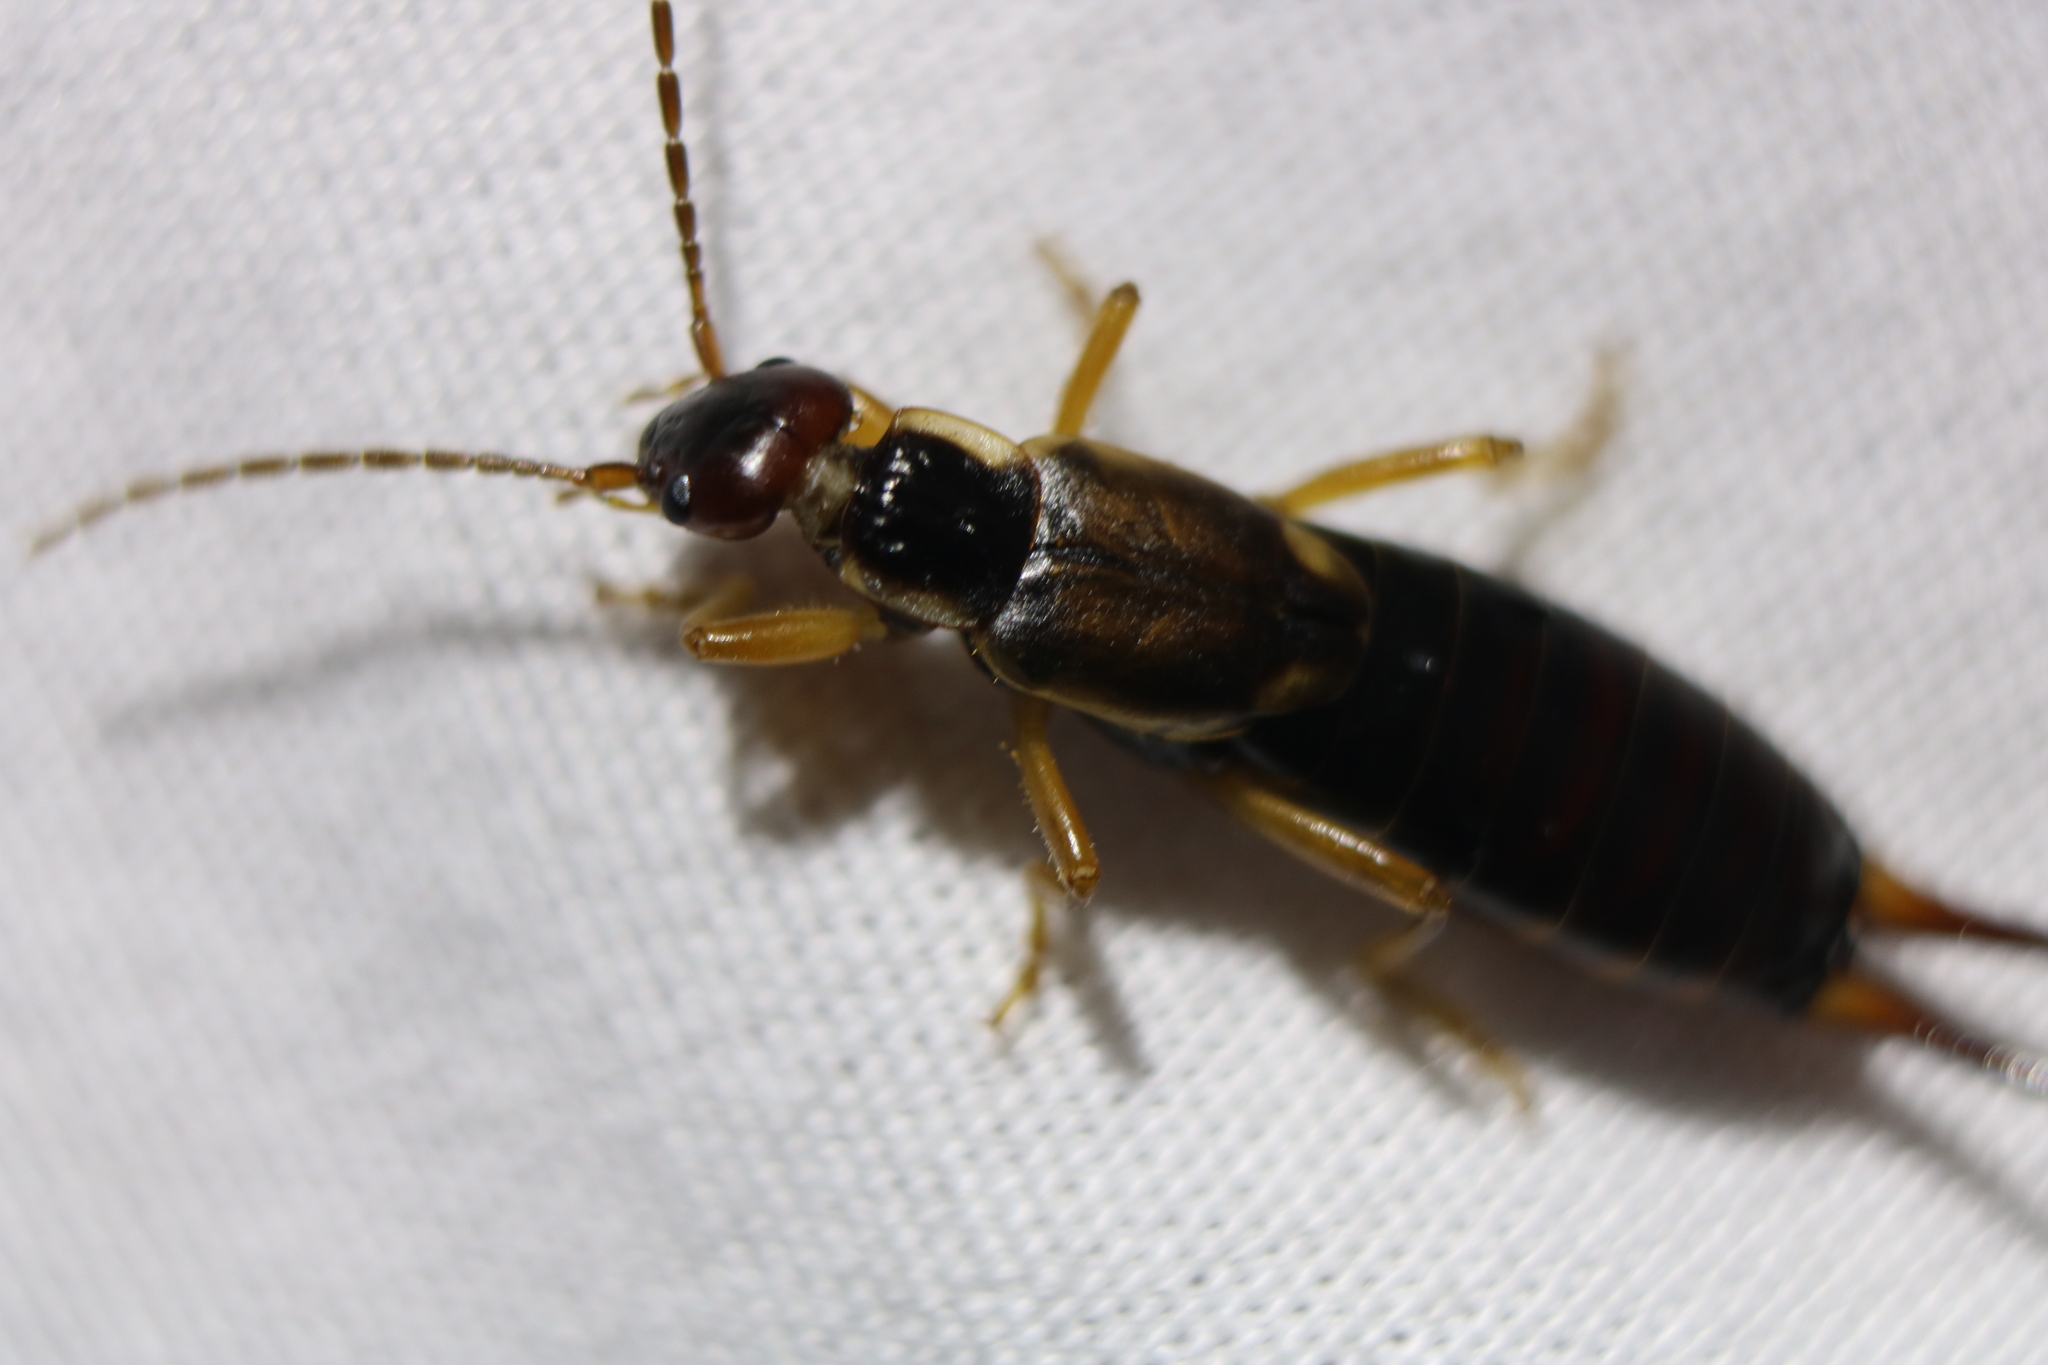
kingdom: Animalia
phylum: Arthropoda
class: Insecta
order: Dermaptera
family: Forficulidae
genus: Forficula
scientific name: Forficula
